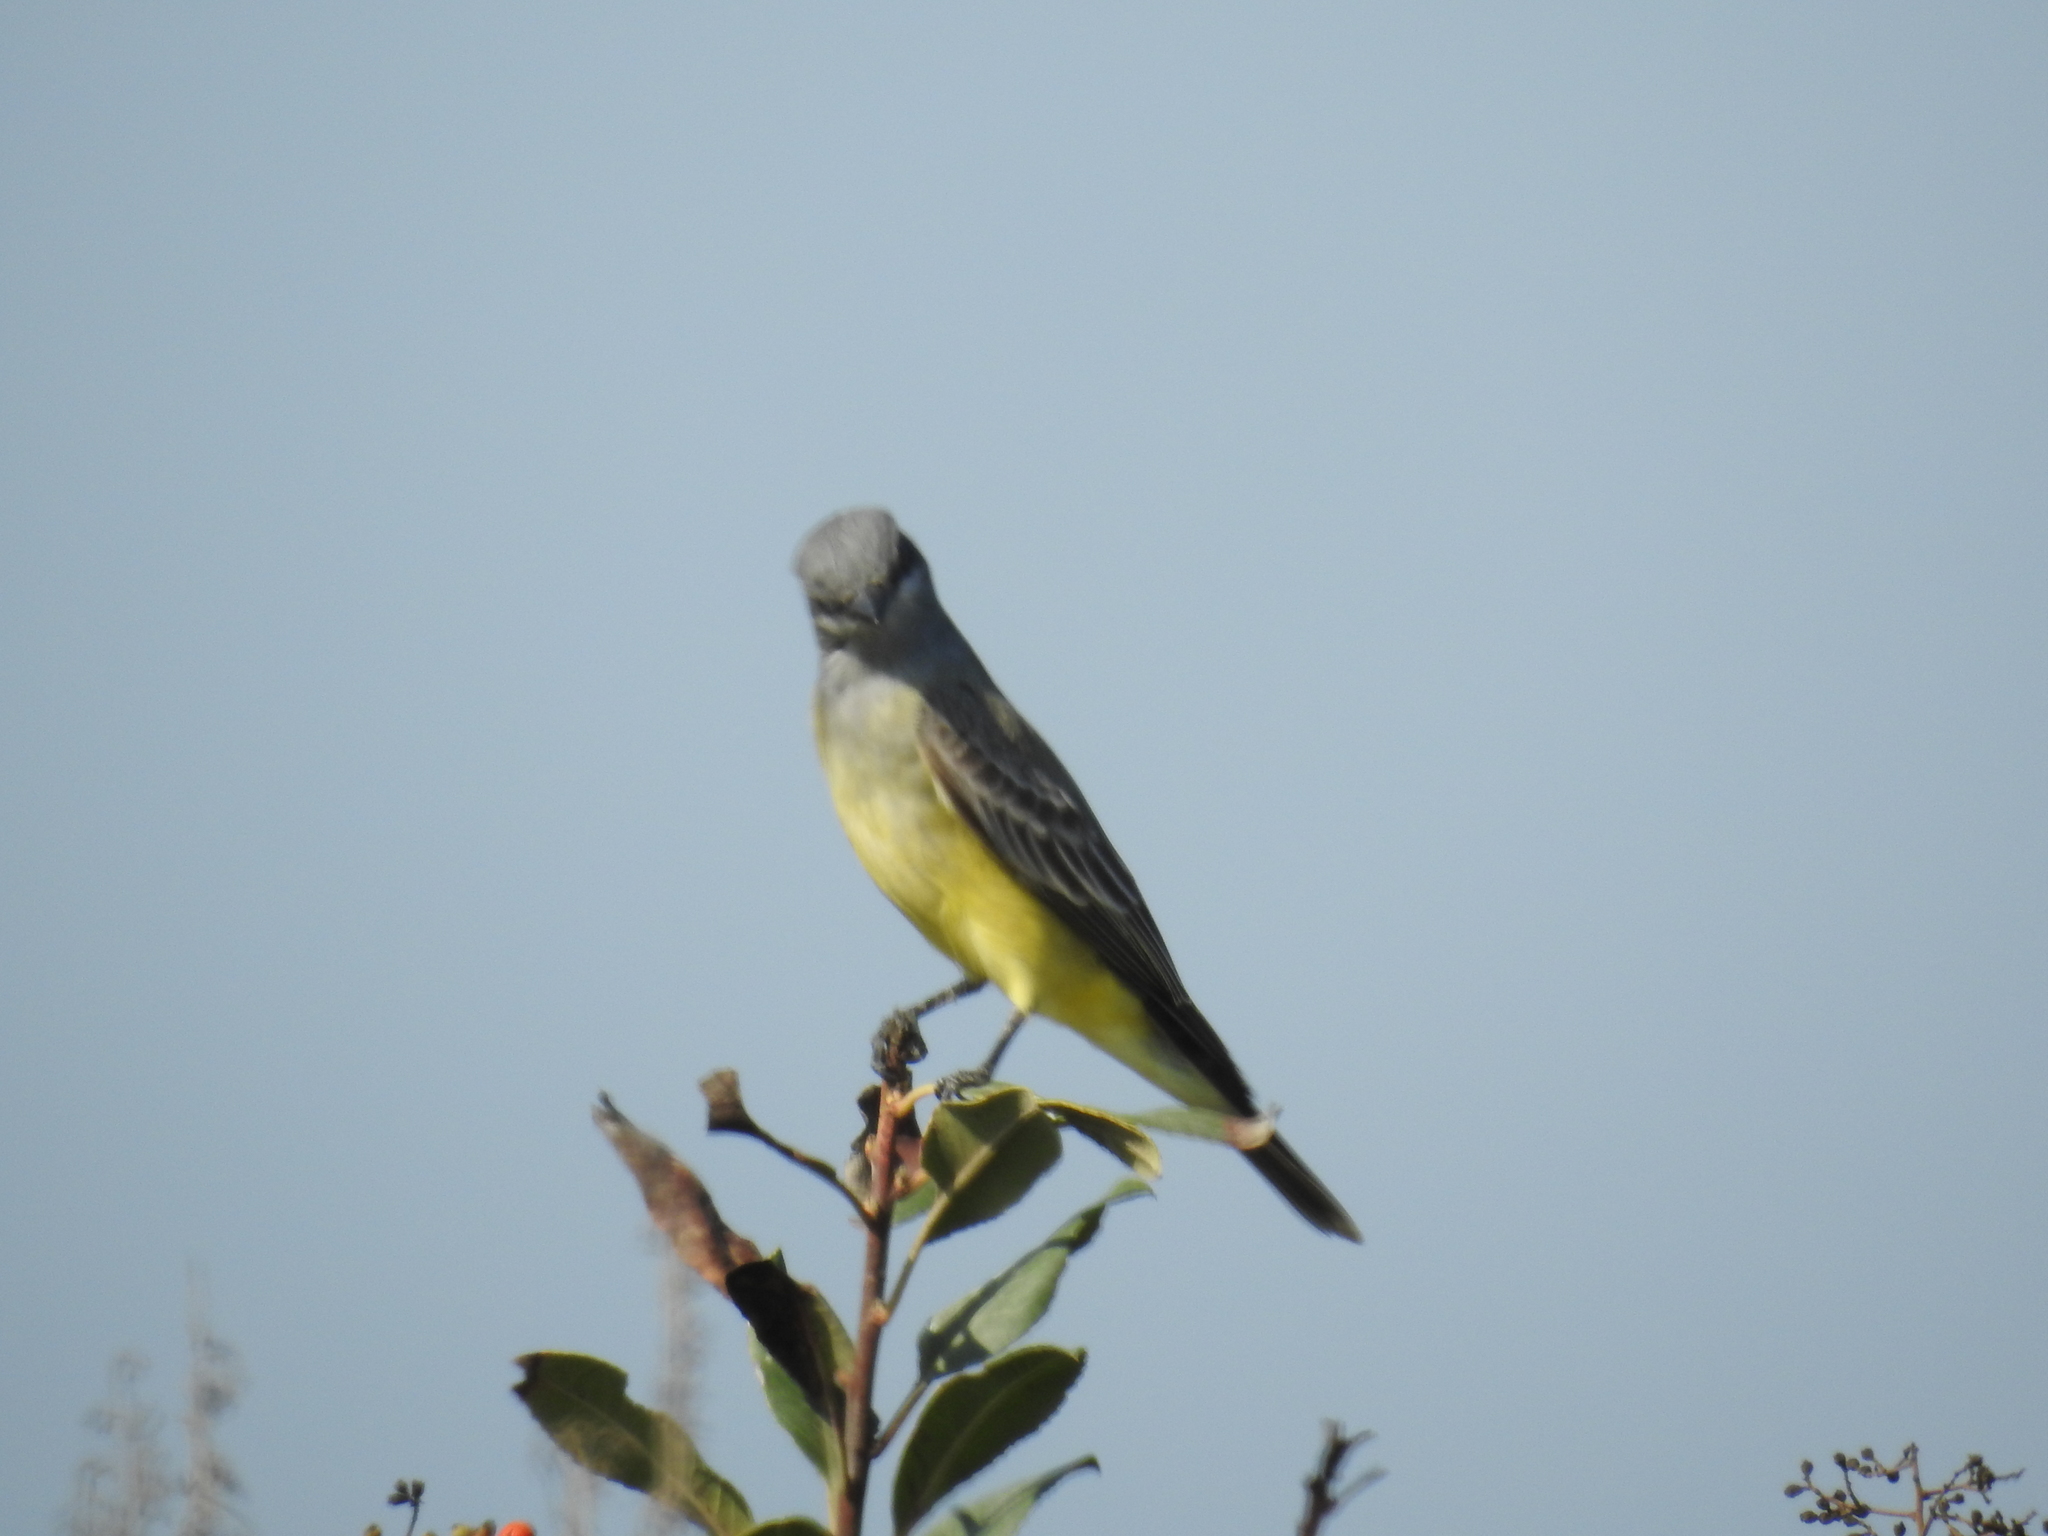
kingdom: Animalia
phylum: Chordata
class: Aves
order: Passeriformes
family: Tyrannidae
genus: Tyrannus
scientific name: Tyrannus vociferans
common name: Cassin's kingbird
